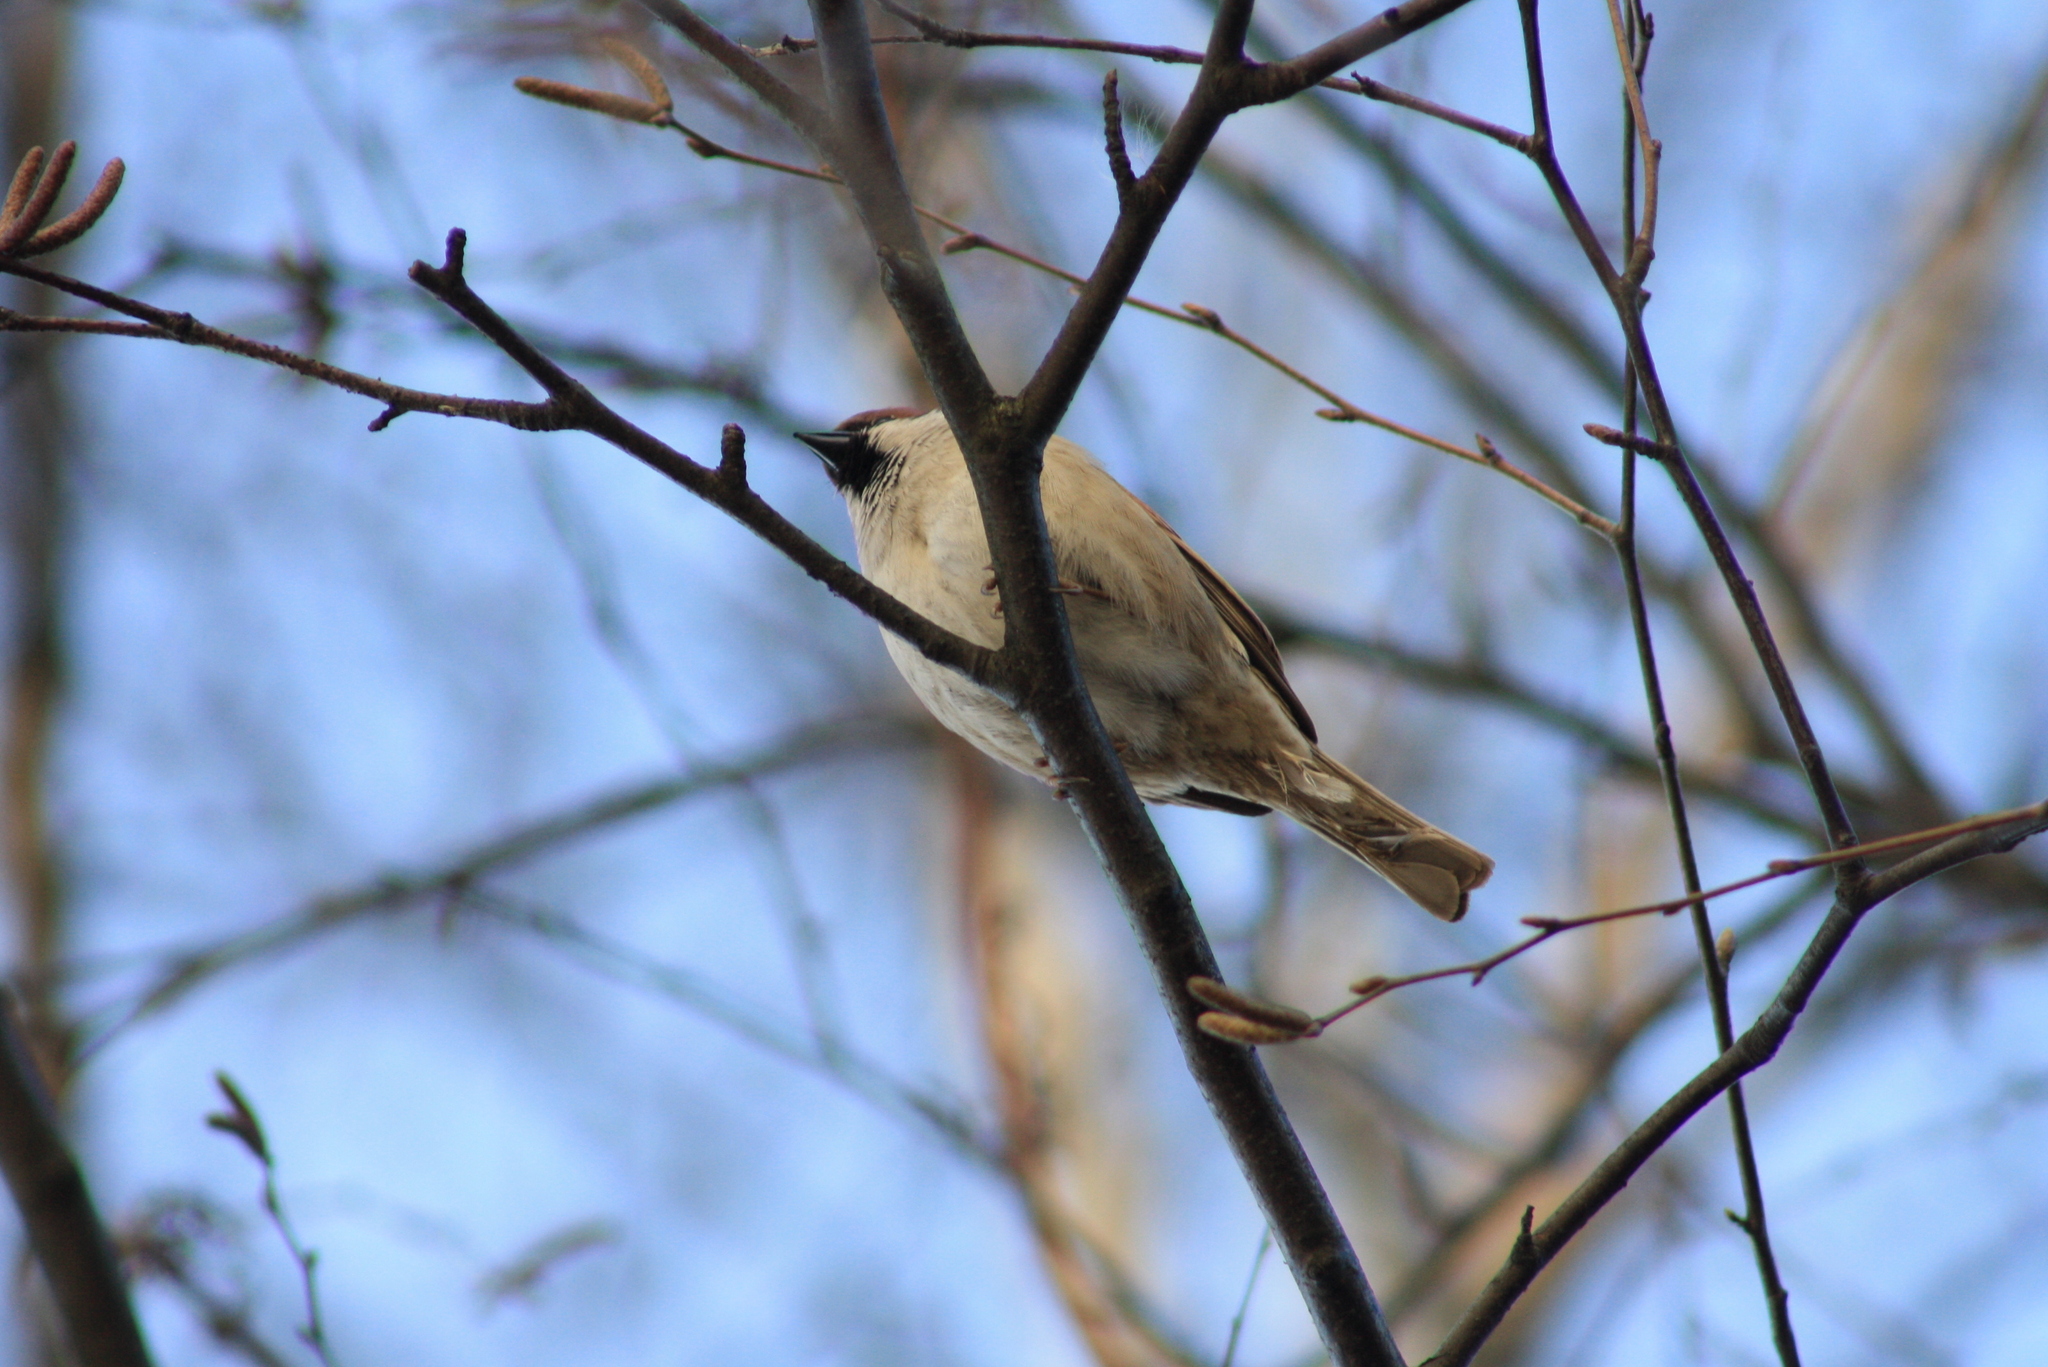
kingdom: Animalia
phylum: Chordata
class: Aves
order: Passeriformes
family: Passeridae
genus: Passer
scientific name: Passer montanus
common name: Eurasian tree sparrow
